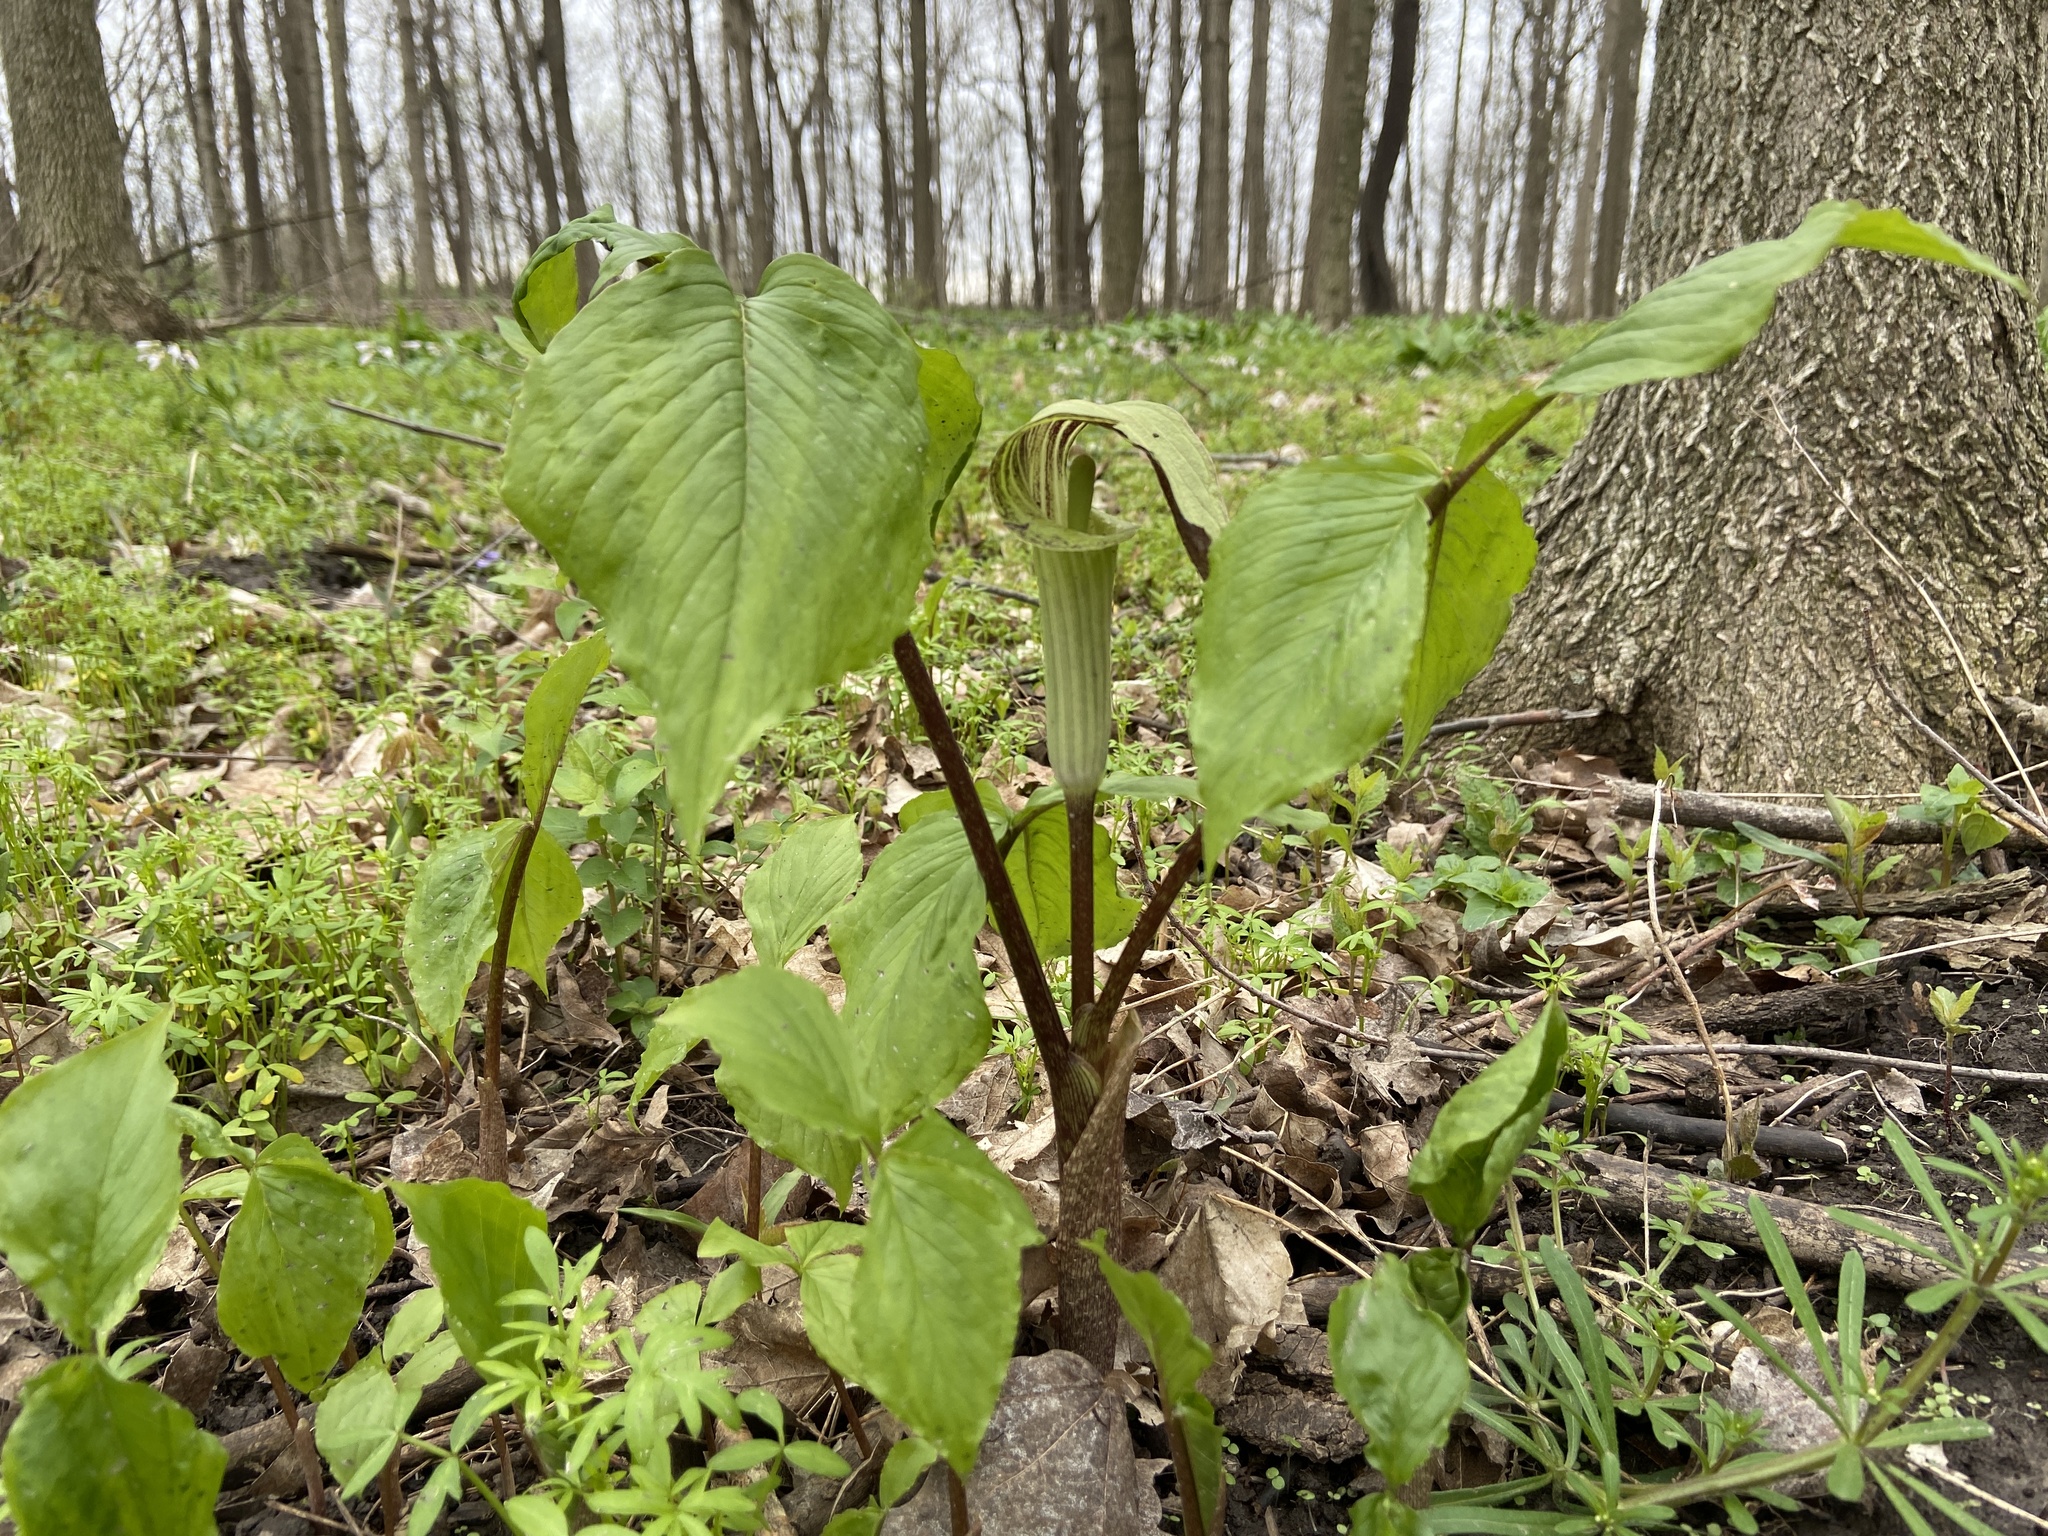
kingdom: Plantae
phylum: Tracheophyta
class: Liliopsida
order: Alismatales
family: Araceae
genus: Arisaema
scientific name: Arisaema triphyllum
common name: Jack-in-the-pulpit
